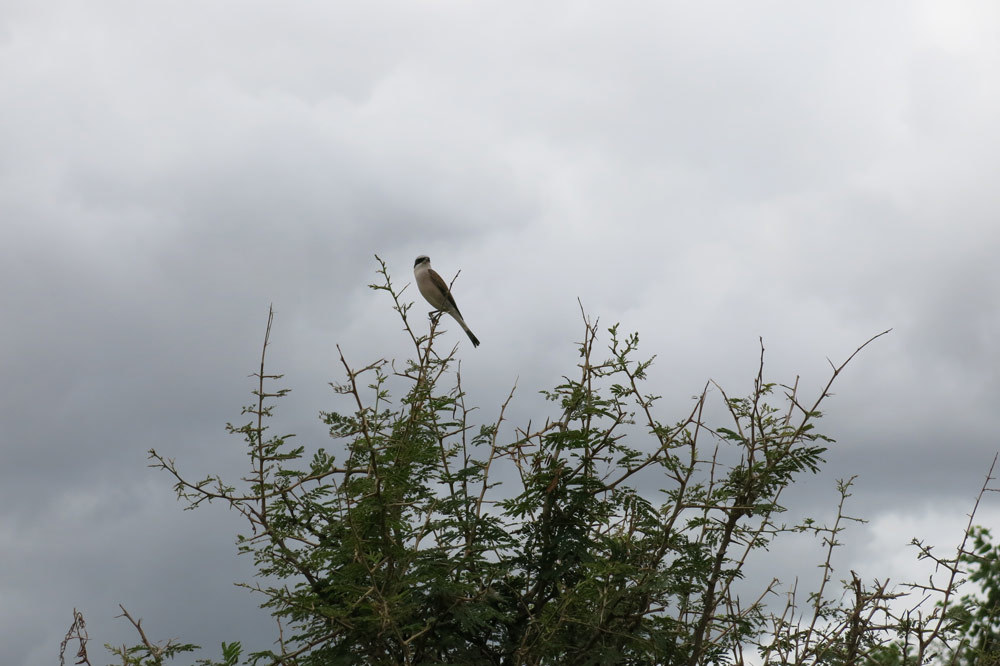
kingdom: Animalia
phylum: Chordata
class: Aves
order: Passeriformes
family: Laniidae
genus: Lanius
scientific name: Lanius collurio
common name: Red-backed shrike
